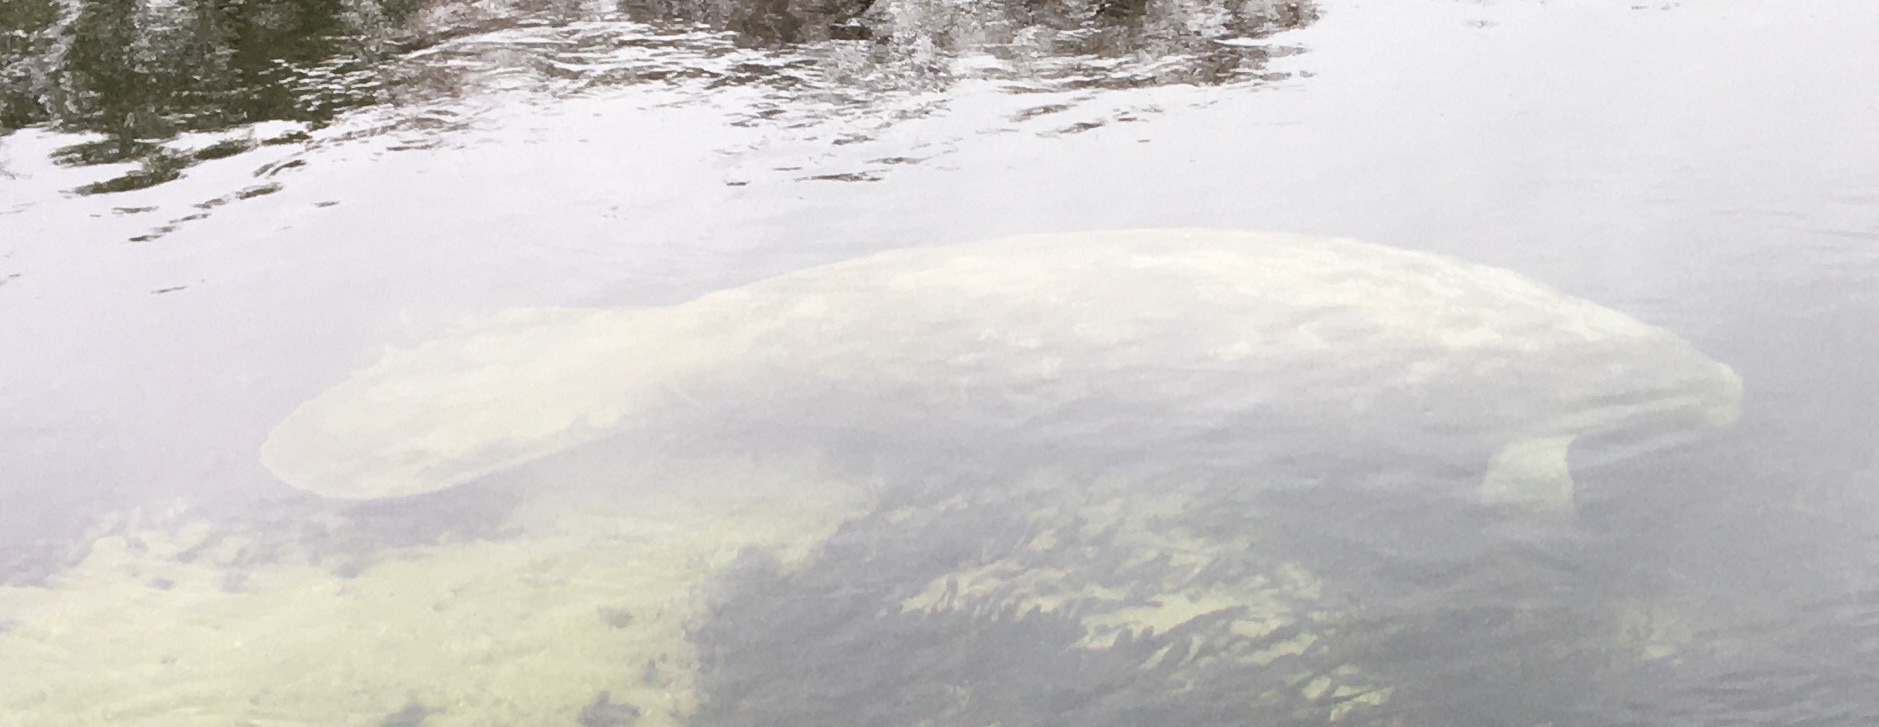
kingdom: Animalia
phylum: Chordata
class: Mammalia
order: Sirenia
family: Trichechidae
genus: Trichechus
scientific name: Trichechus manatus
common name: West indian manatee
